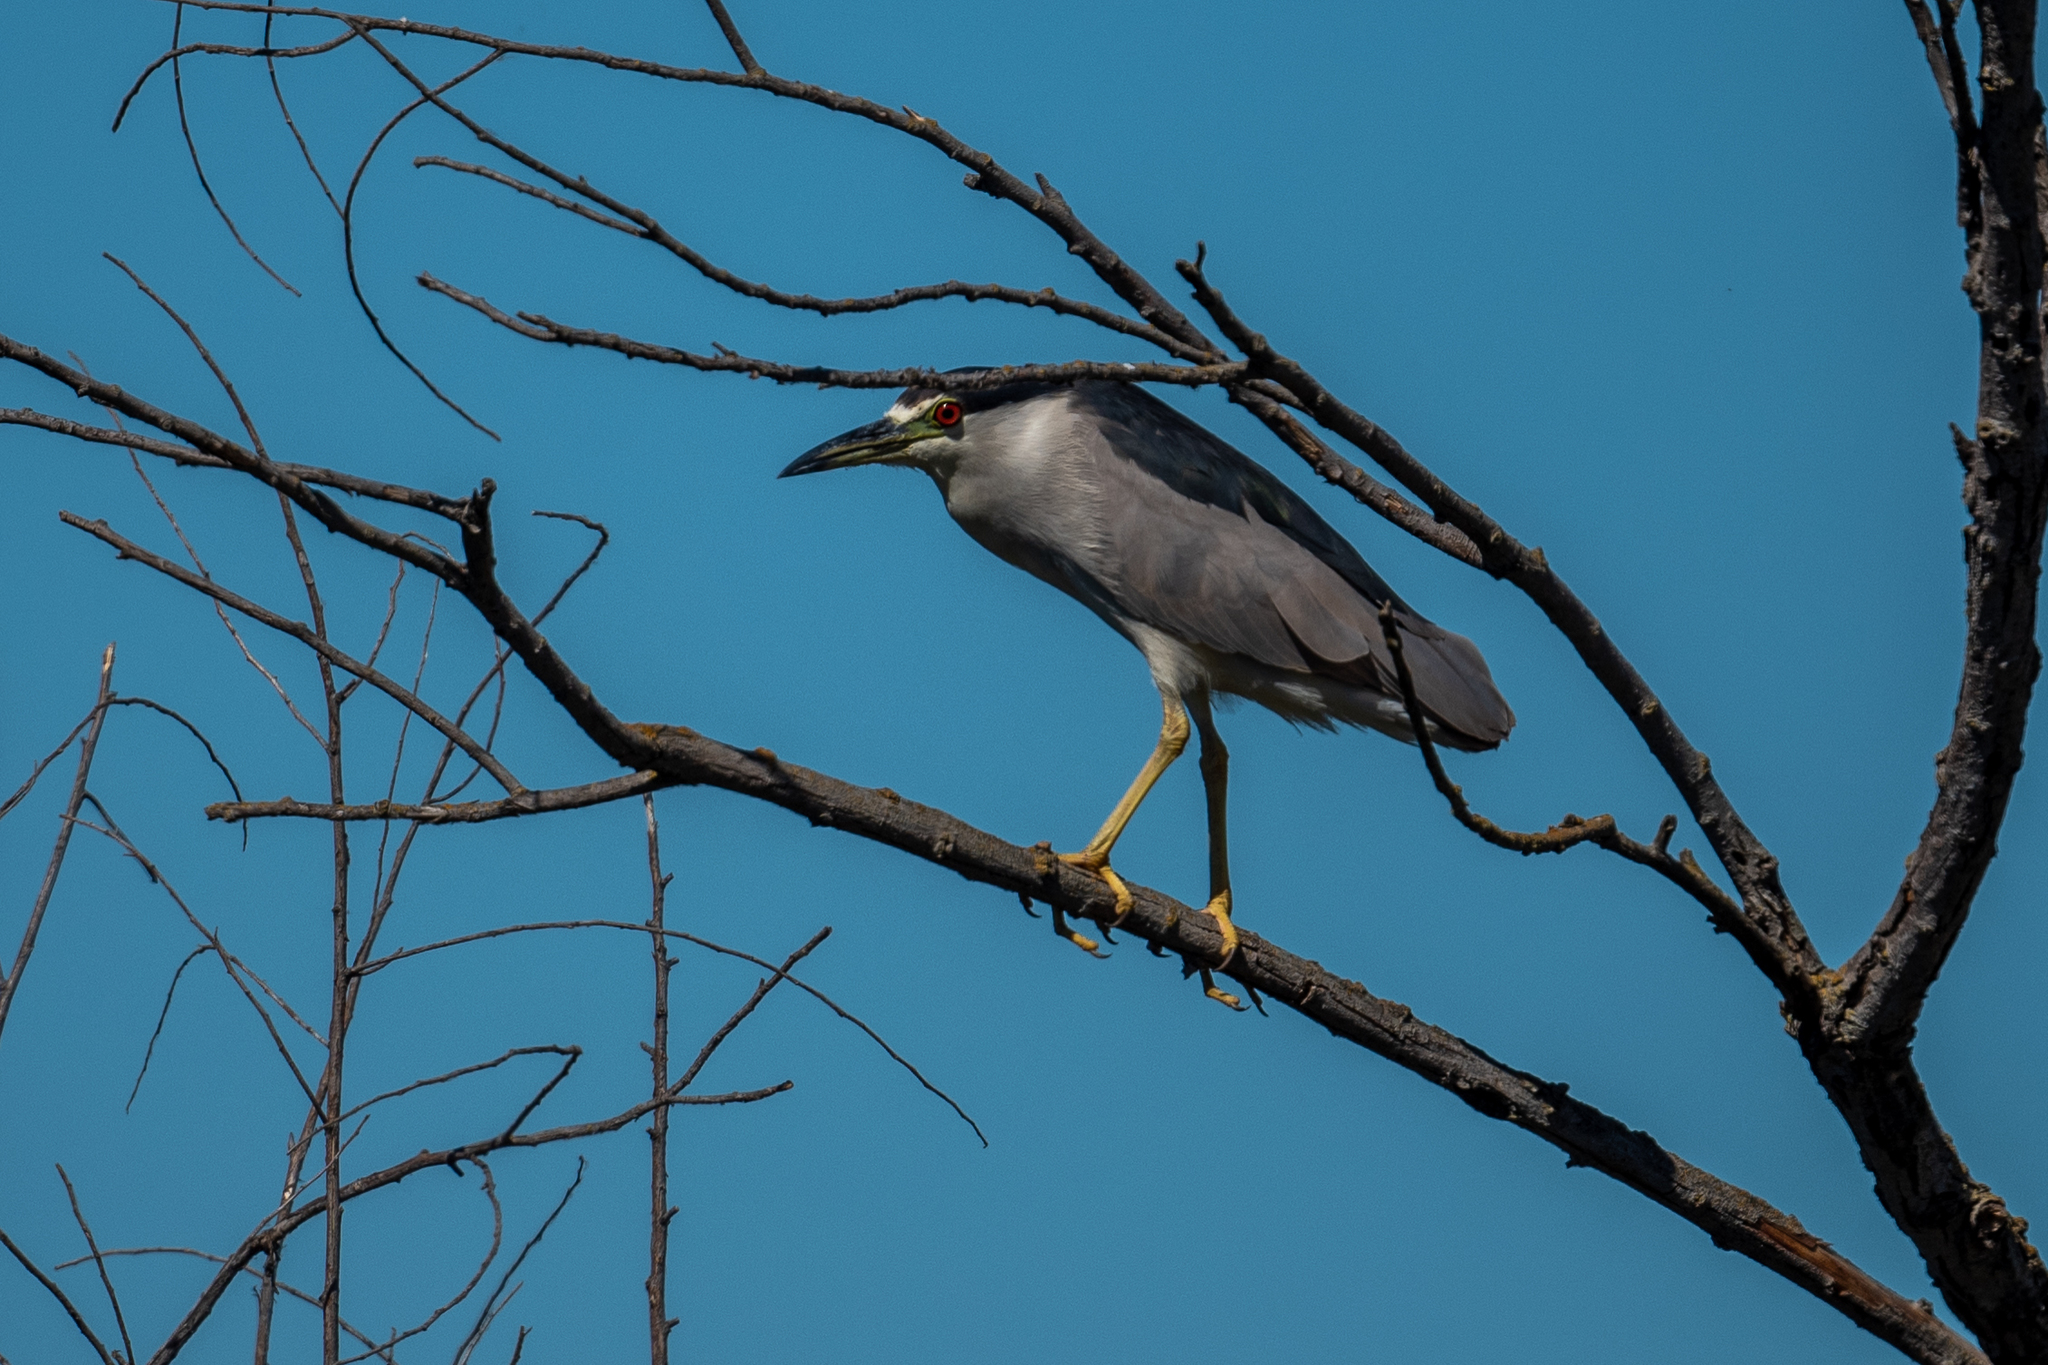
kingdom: Animalia
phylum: Chordata
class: Aves
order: Pelecaniformes
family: Ardeidae
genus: Nycticorax
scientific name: Nycticorax nycticorax
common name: Black-crowned night heron
